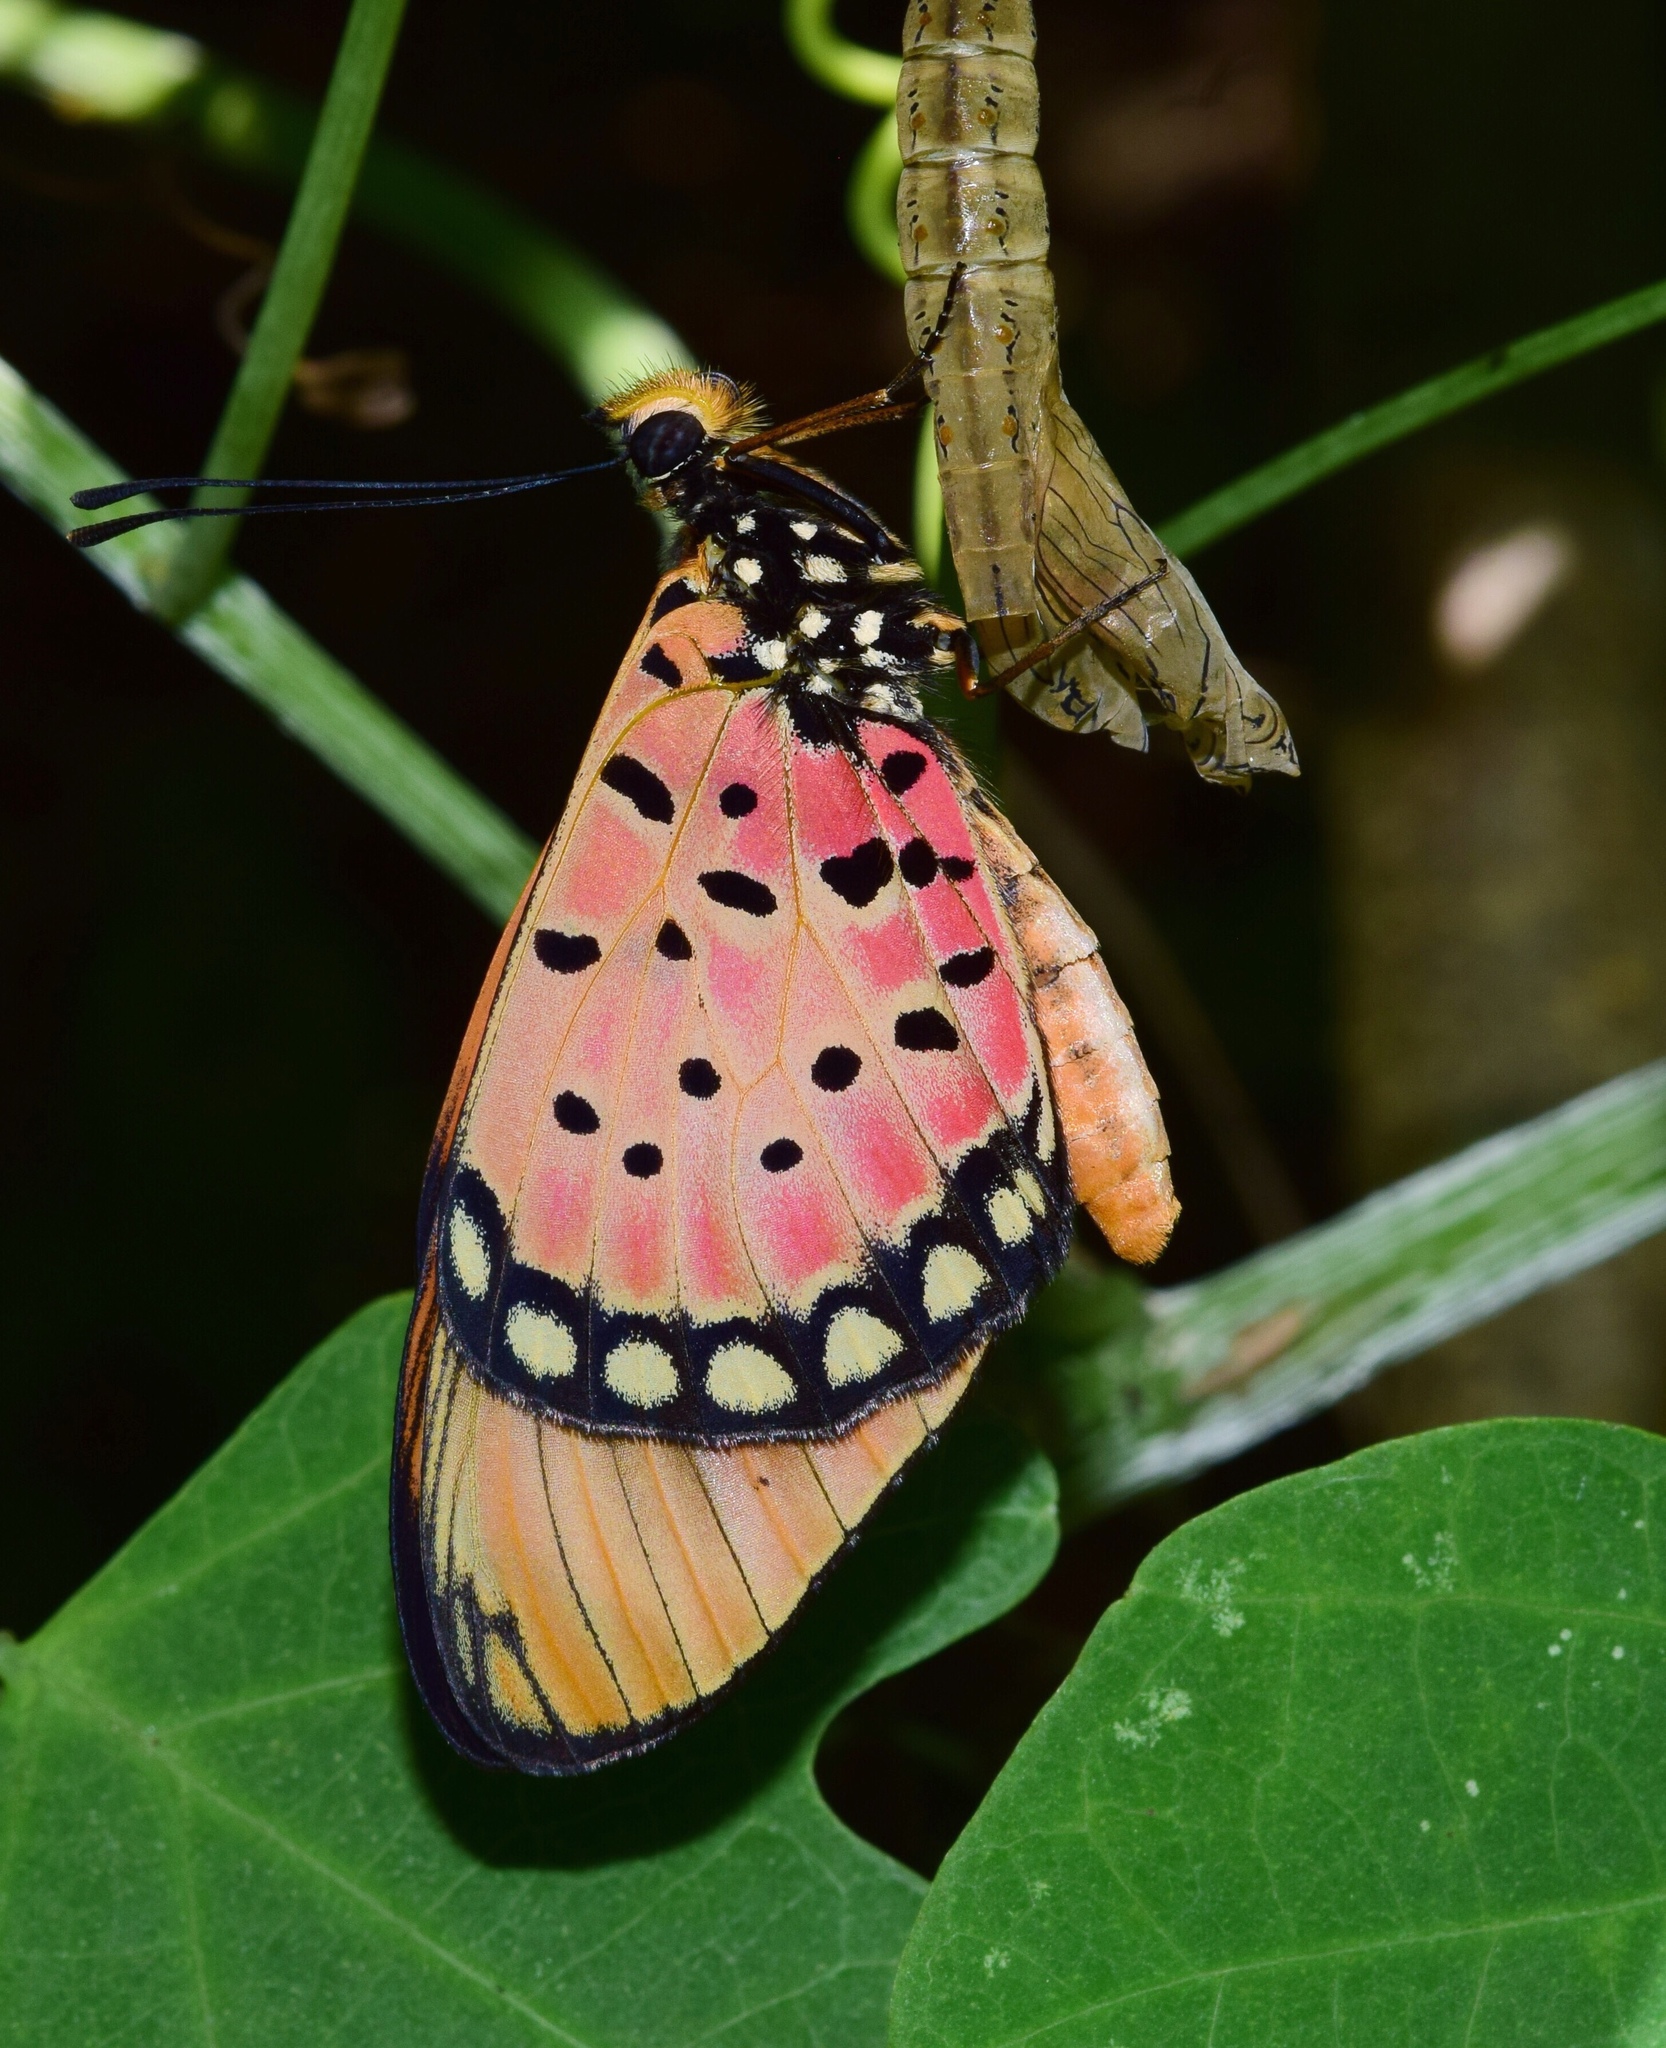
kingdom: Animalia
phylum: Arthropoda
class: Insecta
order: Lepidoptera
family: Nymphalidae
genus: Stephenia
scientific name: Stephenia
